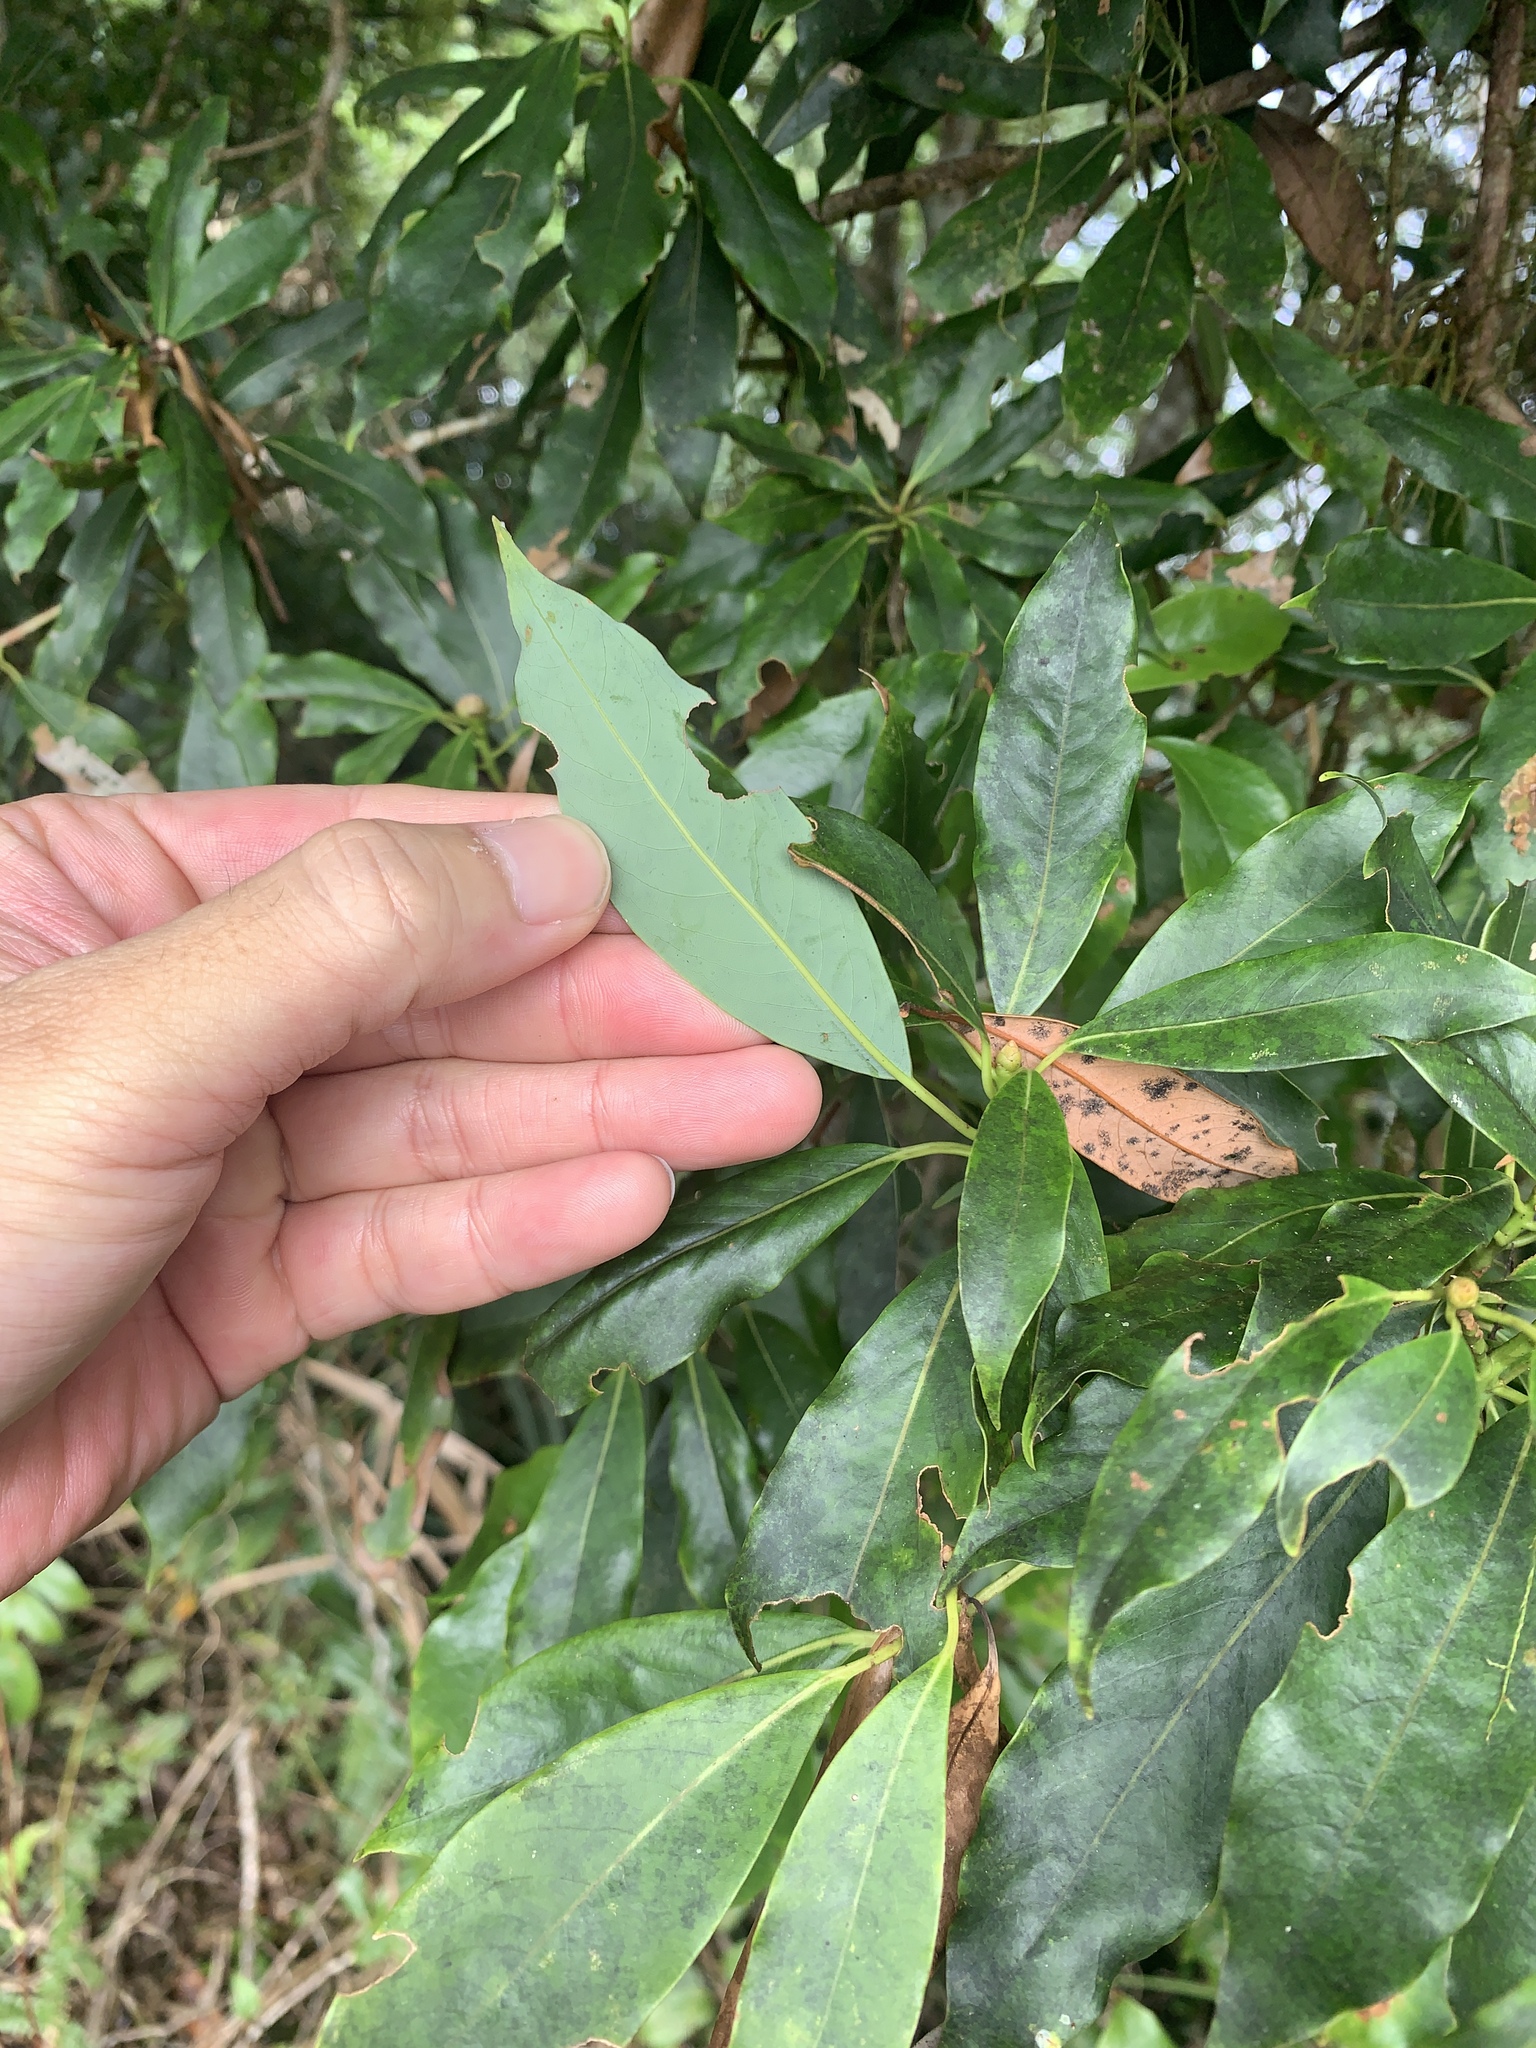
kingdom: Plantae
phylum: Tracheophyta
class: Magnoliopsida
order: Laurales
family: Lauraceae
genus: Machilus
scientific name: Machilus japonica
